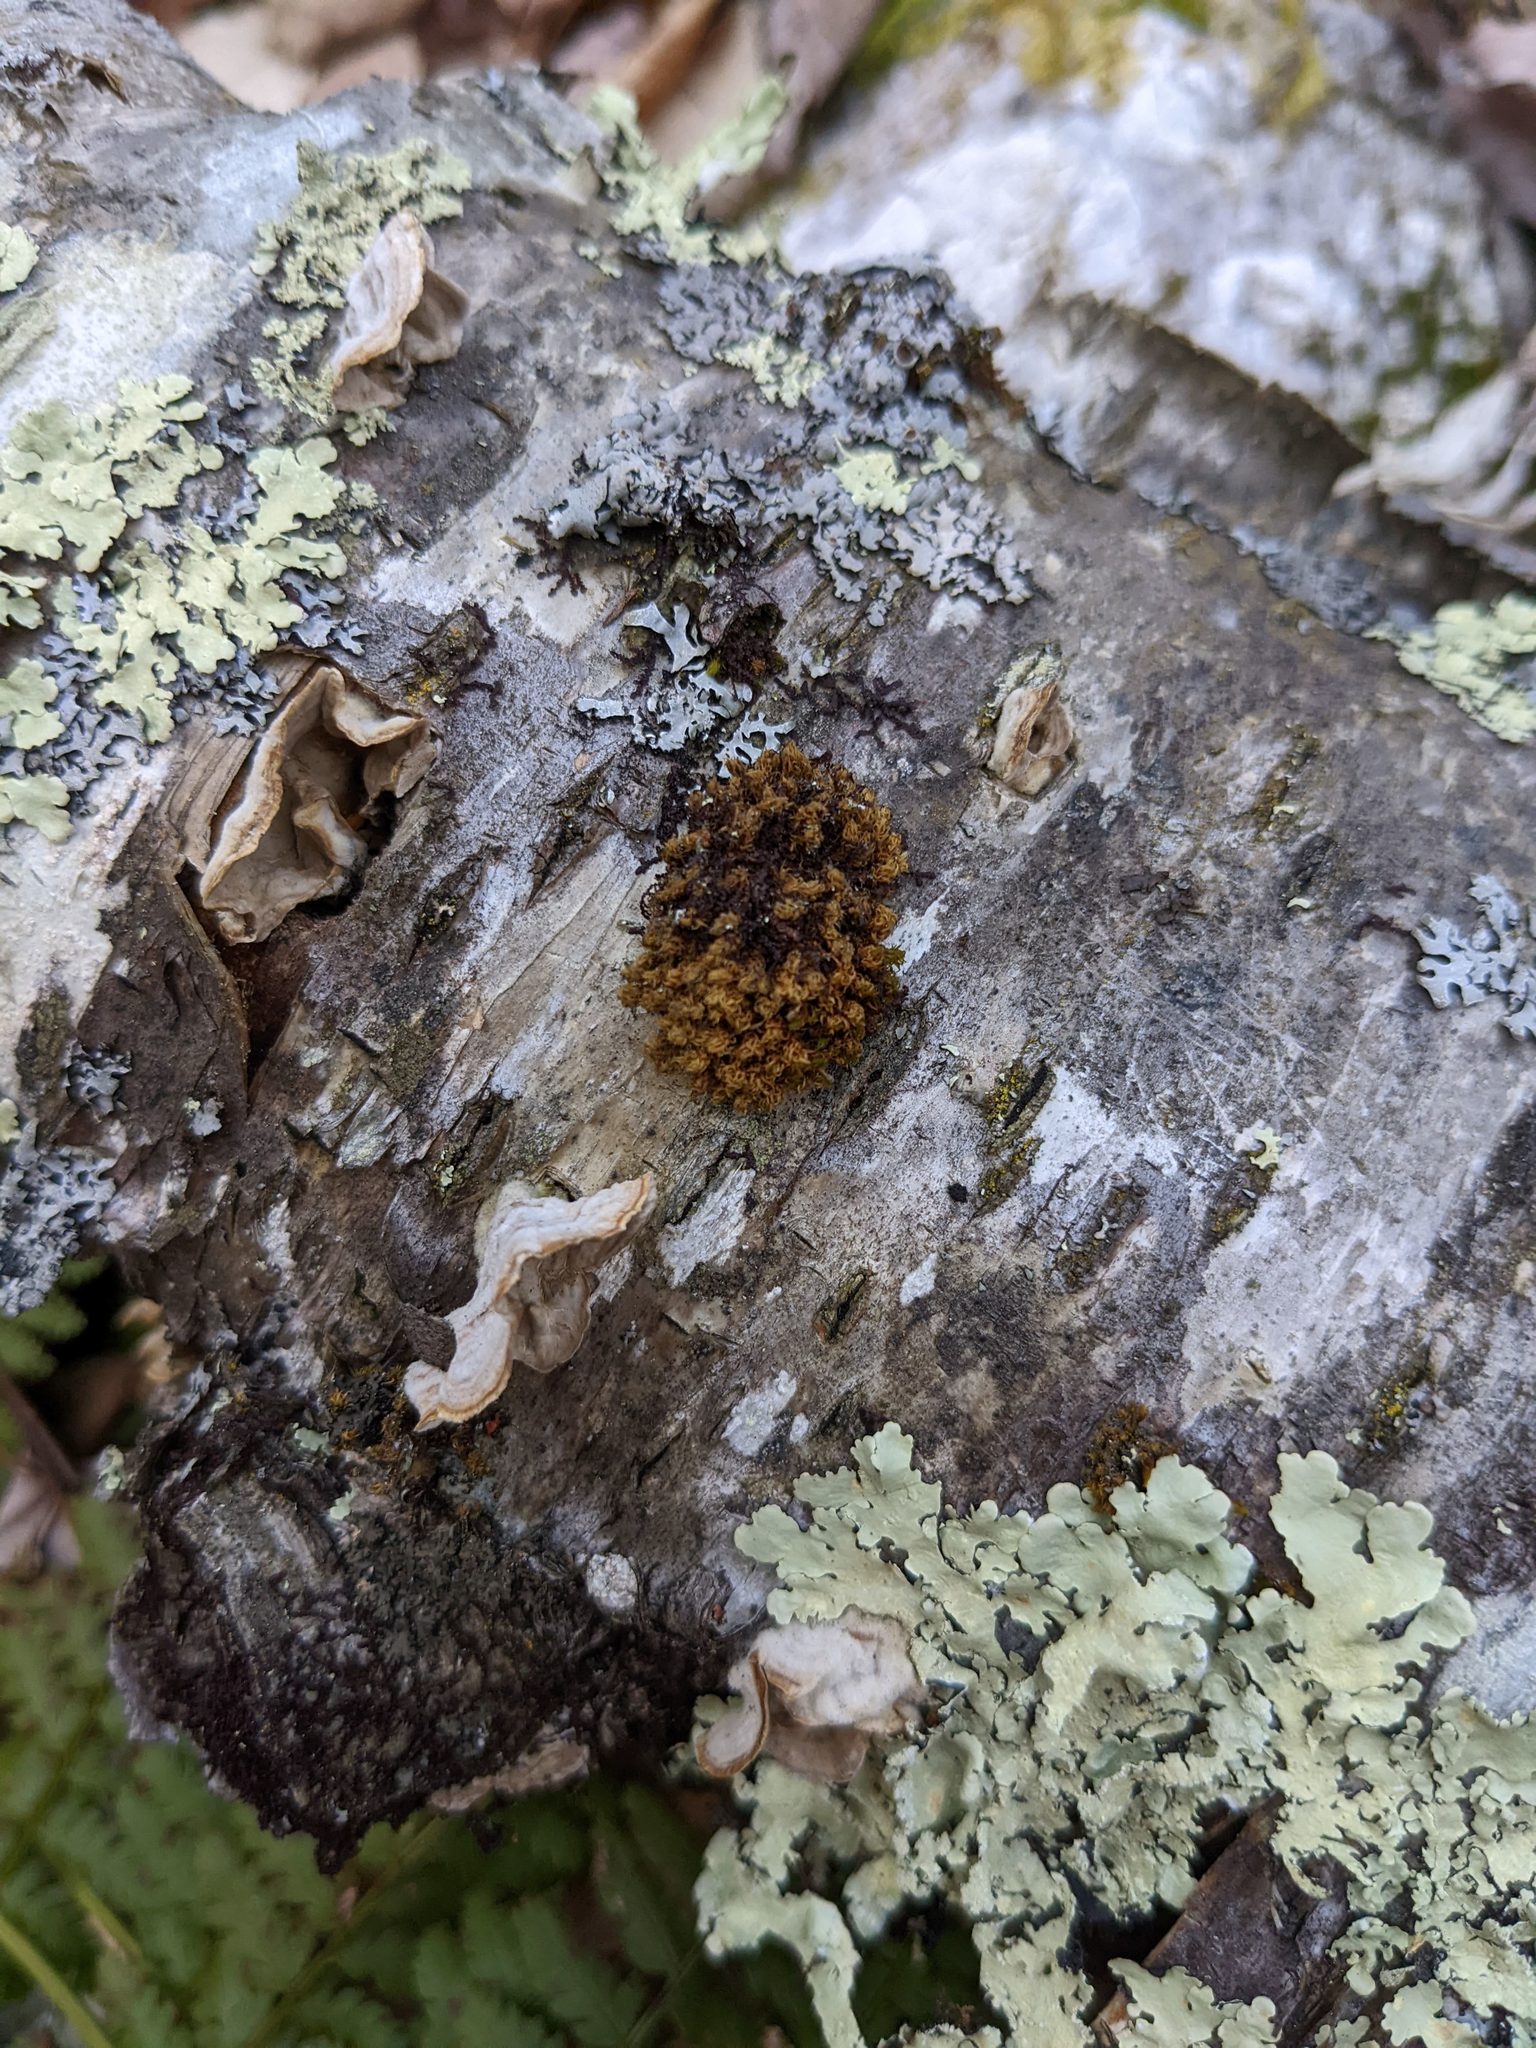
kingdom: Plantae
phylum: Bryophyta
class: Bryopsida
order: Orthotrichales
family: Orthotrichaceae
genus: Ulota
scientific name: Ulota crispa
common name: Crisped pincushion moss
